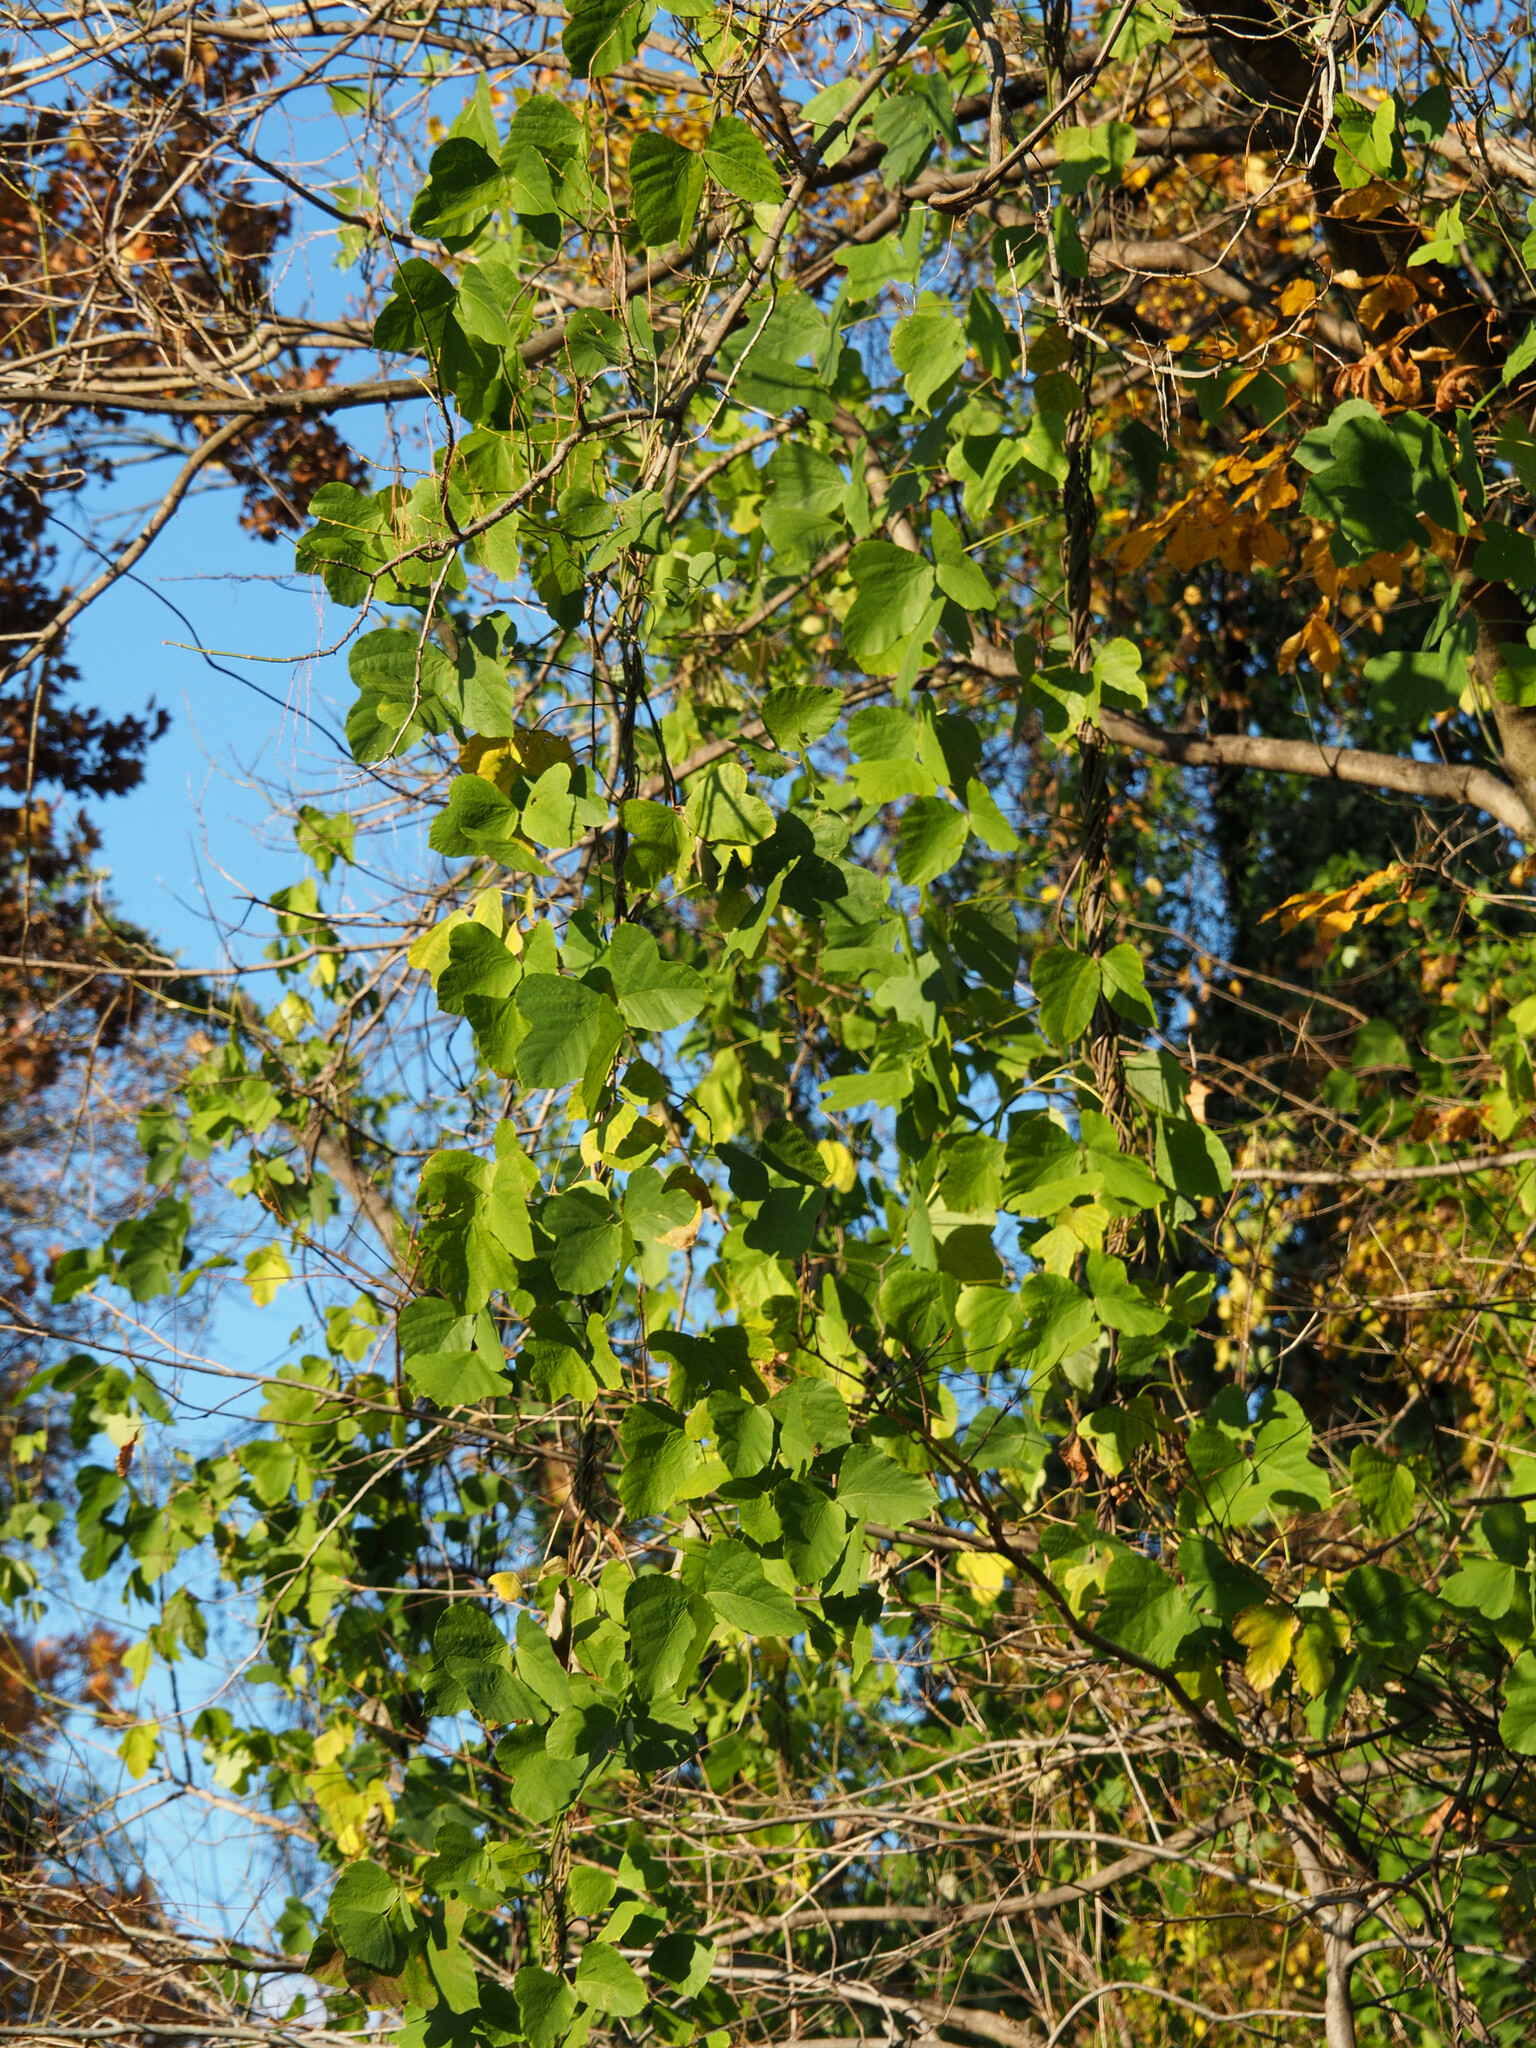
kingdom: Plantae
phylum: Tracheophyta
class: Magnoliopsida
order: Fabales
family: Fabaceae
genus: Pueraria
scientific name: Pueraria montana
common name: Kudzu
